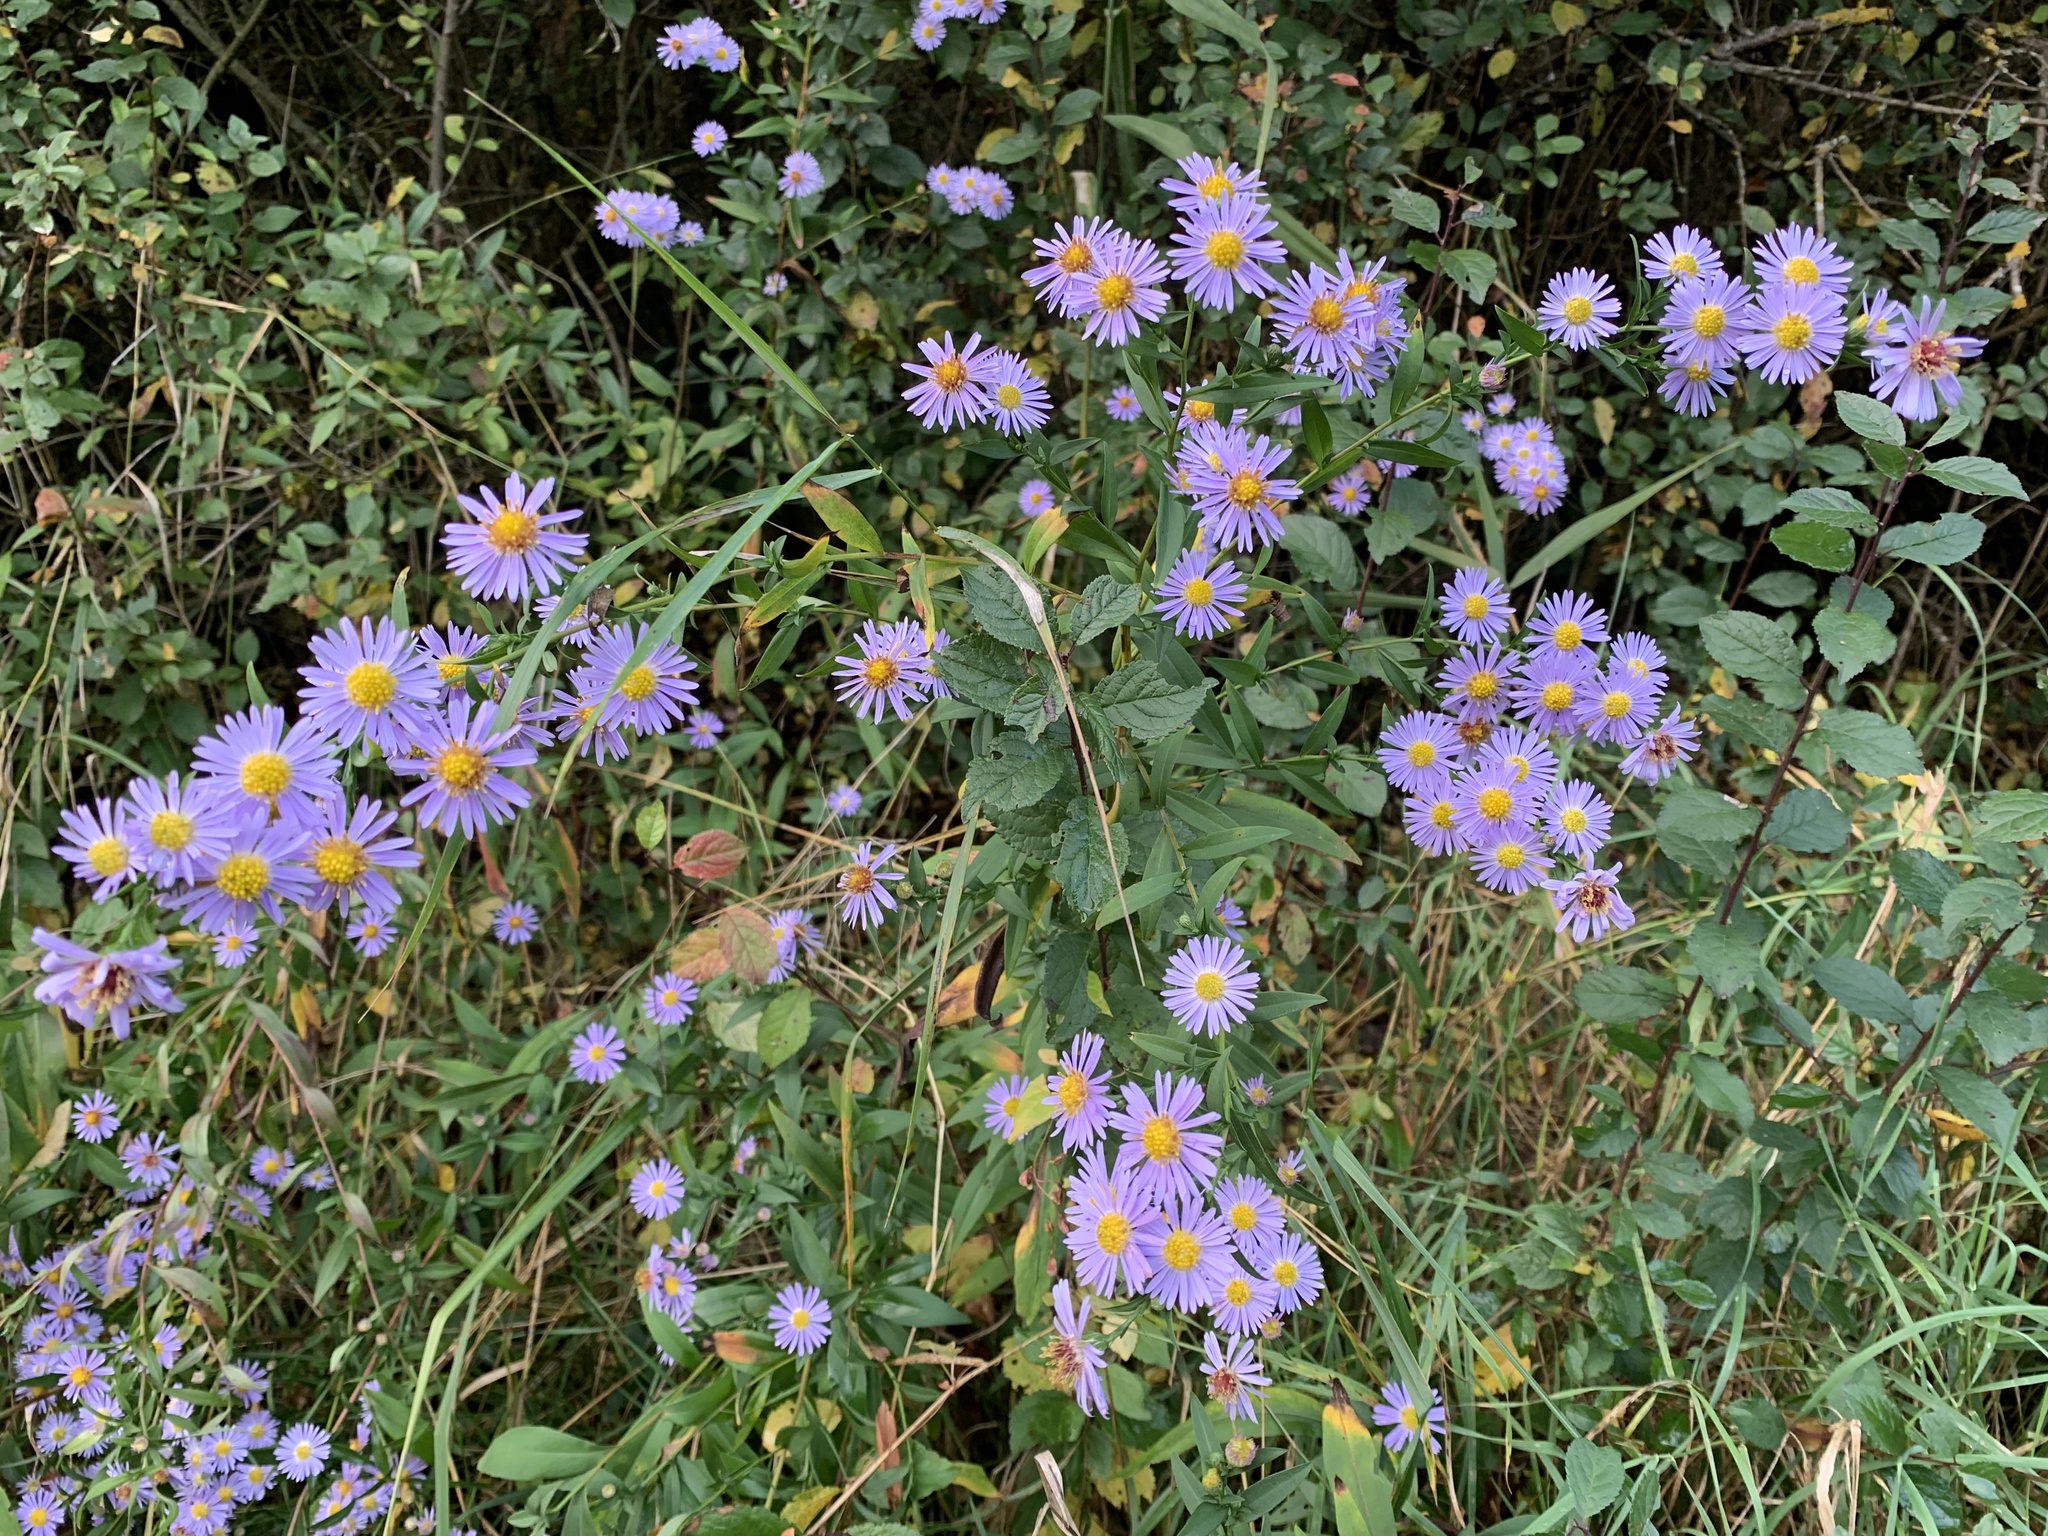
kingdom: Plantae
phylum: Tracheophyta
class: Magnoliopsida
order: Asterales
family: Asteraceae
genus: Aster
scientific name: Aster amellus
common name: European michaelmas daisy
